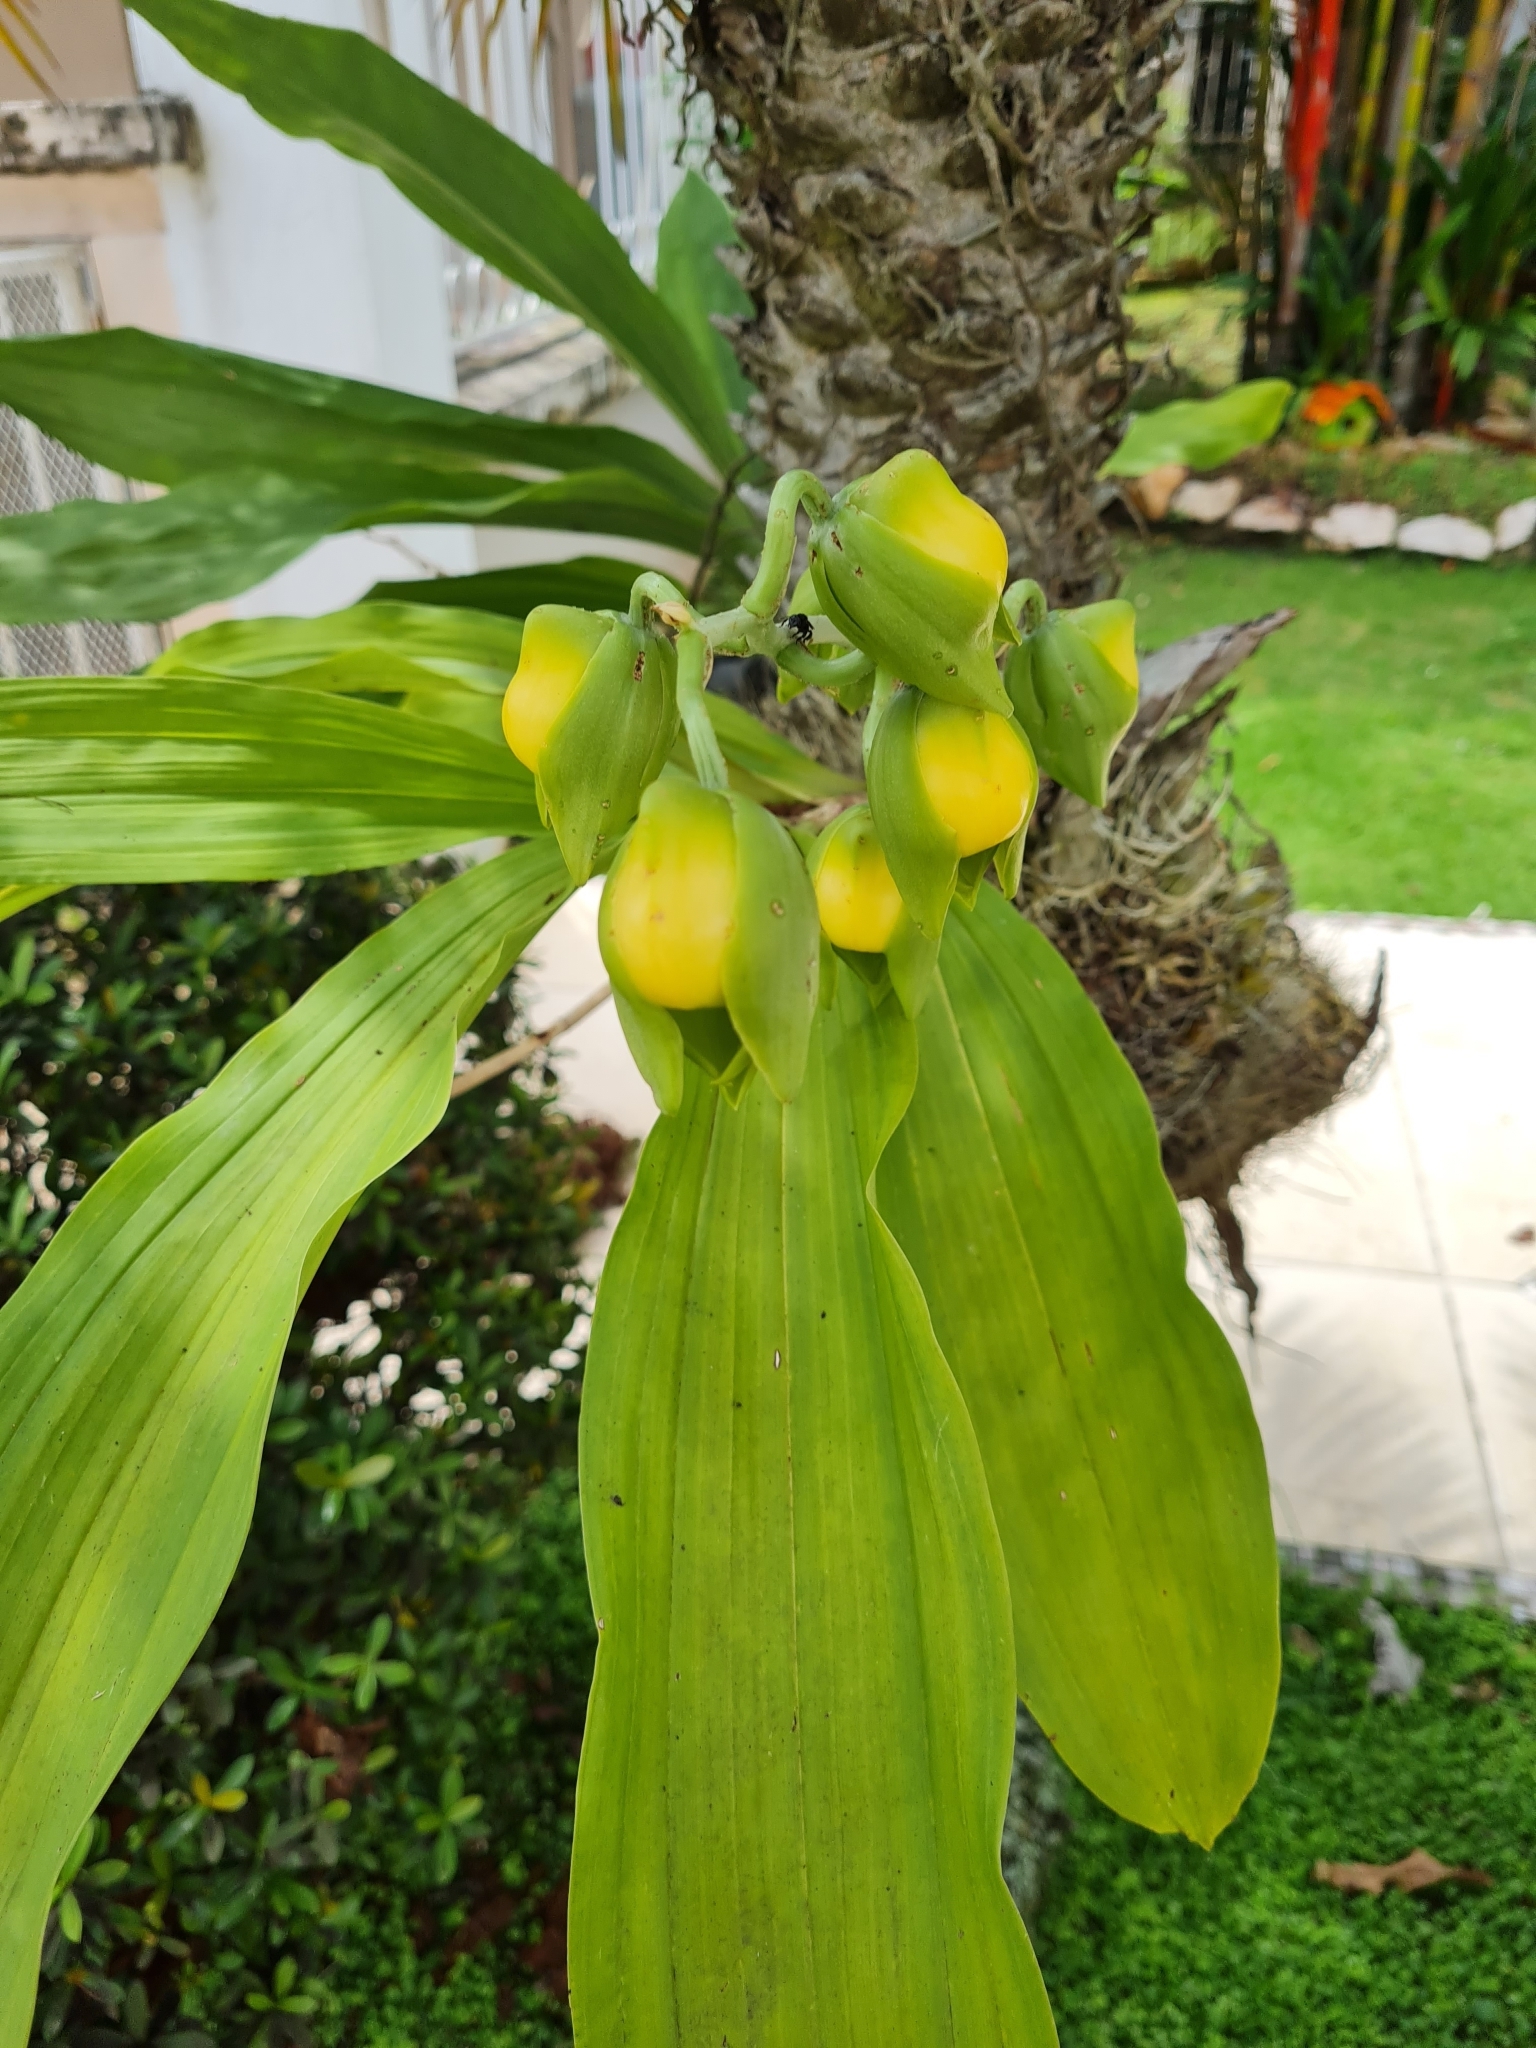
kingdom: Plantae
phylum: Tracheophyta
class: Liliopsida
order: Asparagales
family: Orchidaceae
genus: Catasetum
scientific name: Catasetum viridiflavum
